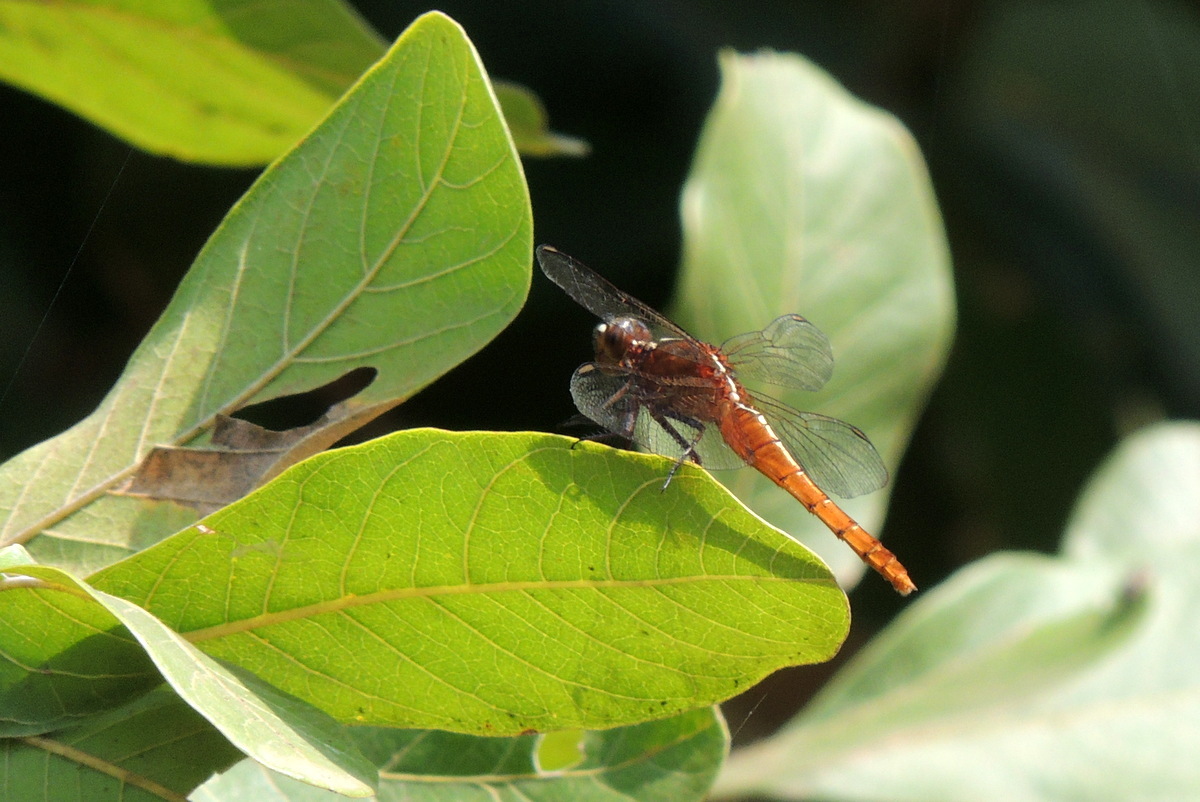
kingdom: Animalia
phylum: Arthropoda
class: Insecta
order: Odonata
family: Libellulidae
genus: Rhodothemis
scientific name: Rhodothemis rufa
